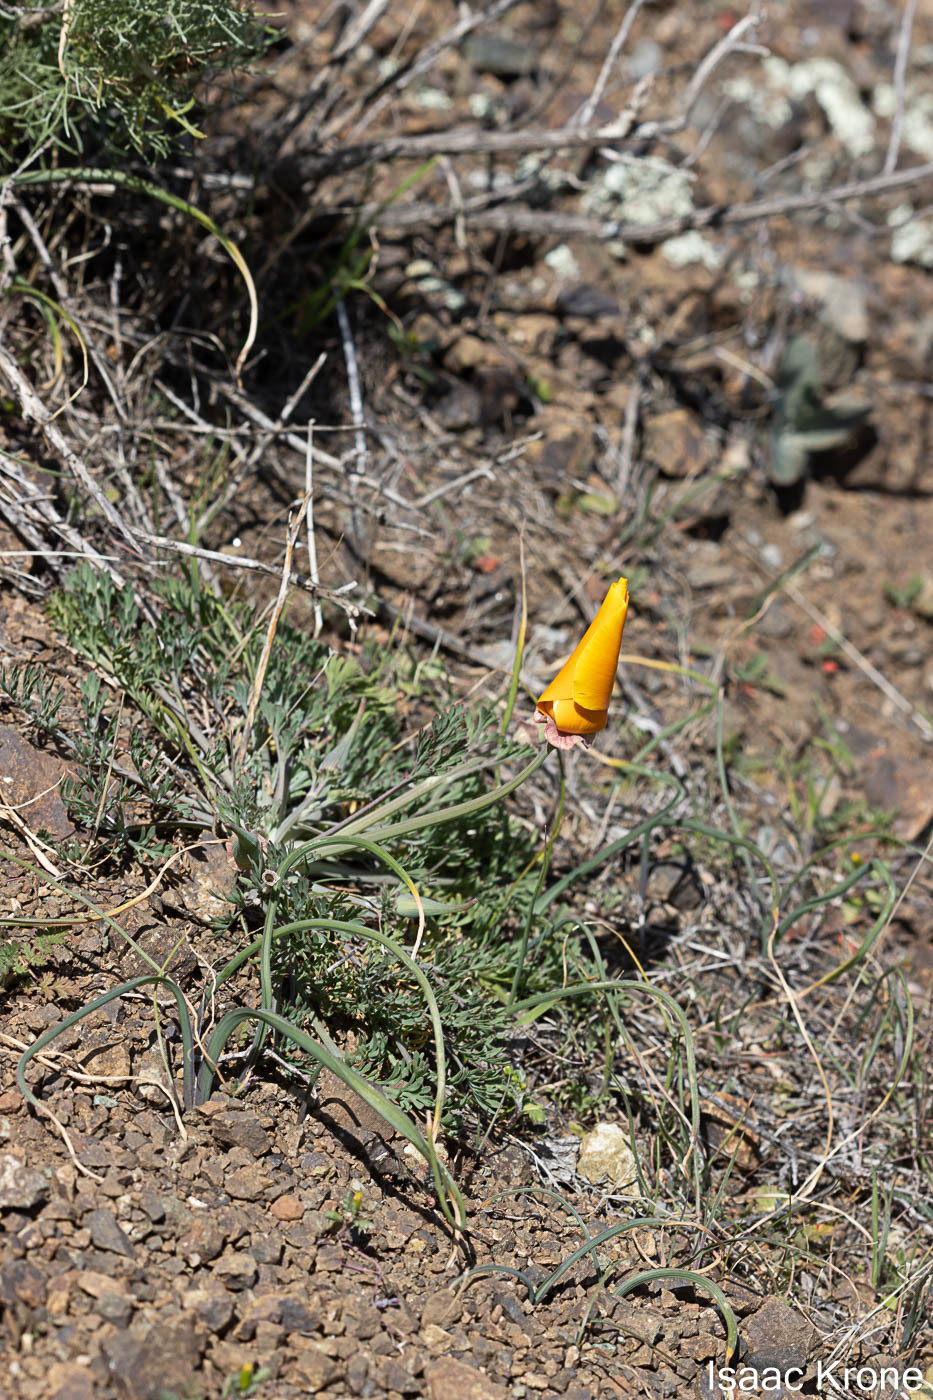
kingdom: Plantae
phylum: Tracheophyta
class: Magnoliopsida
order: Ranunculales
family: Papaveraceae
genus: Eschscholzia
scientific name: Eschscholzia californica
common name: California poppy
